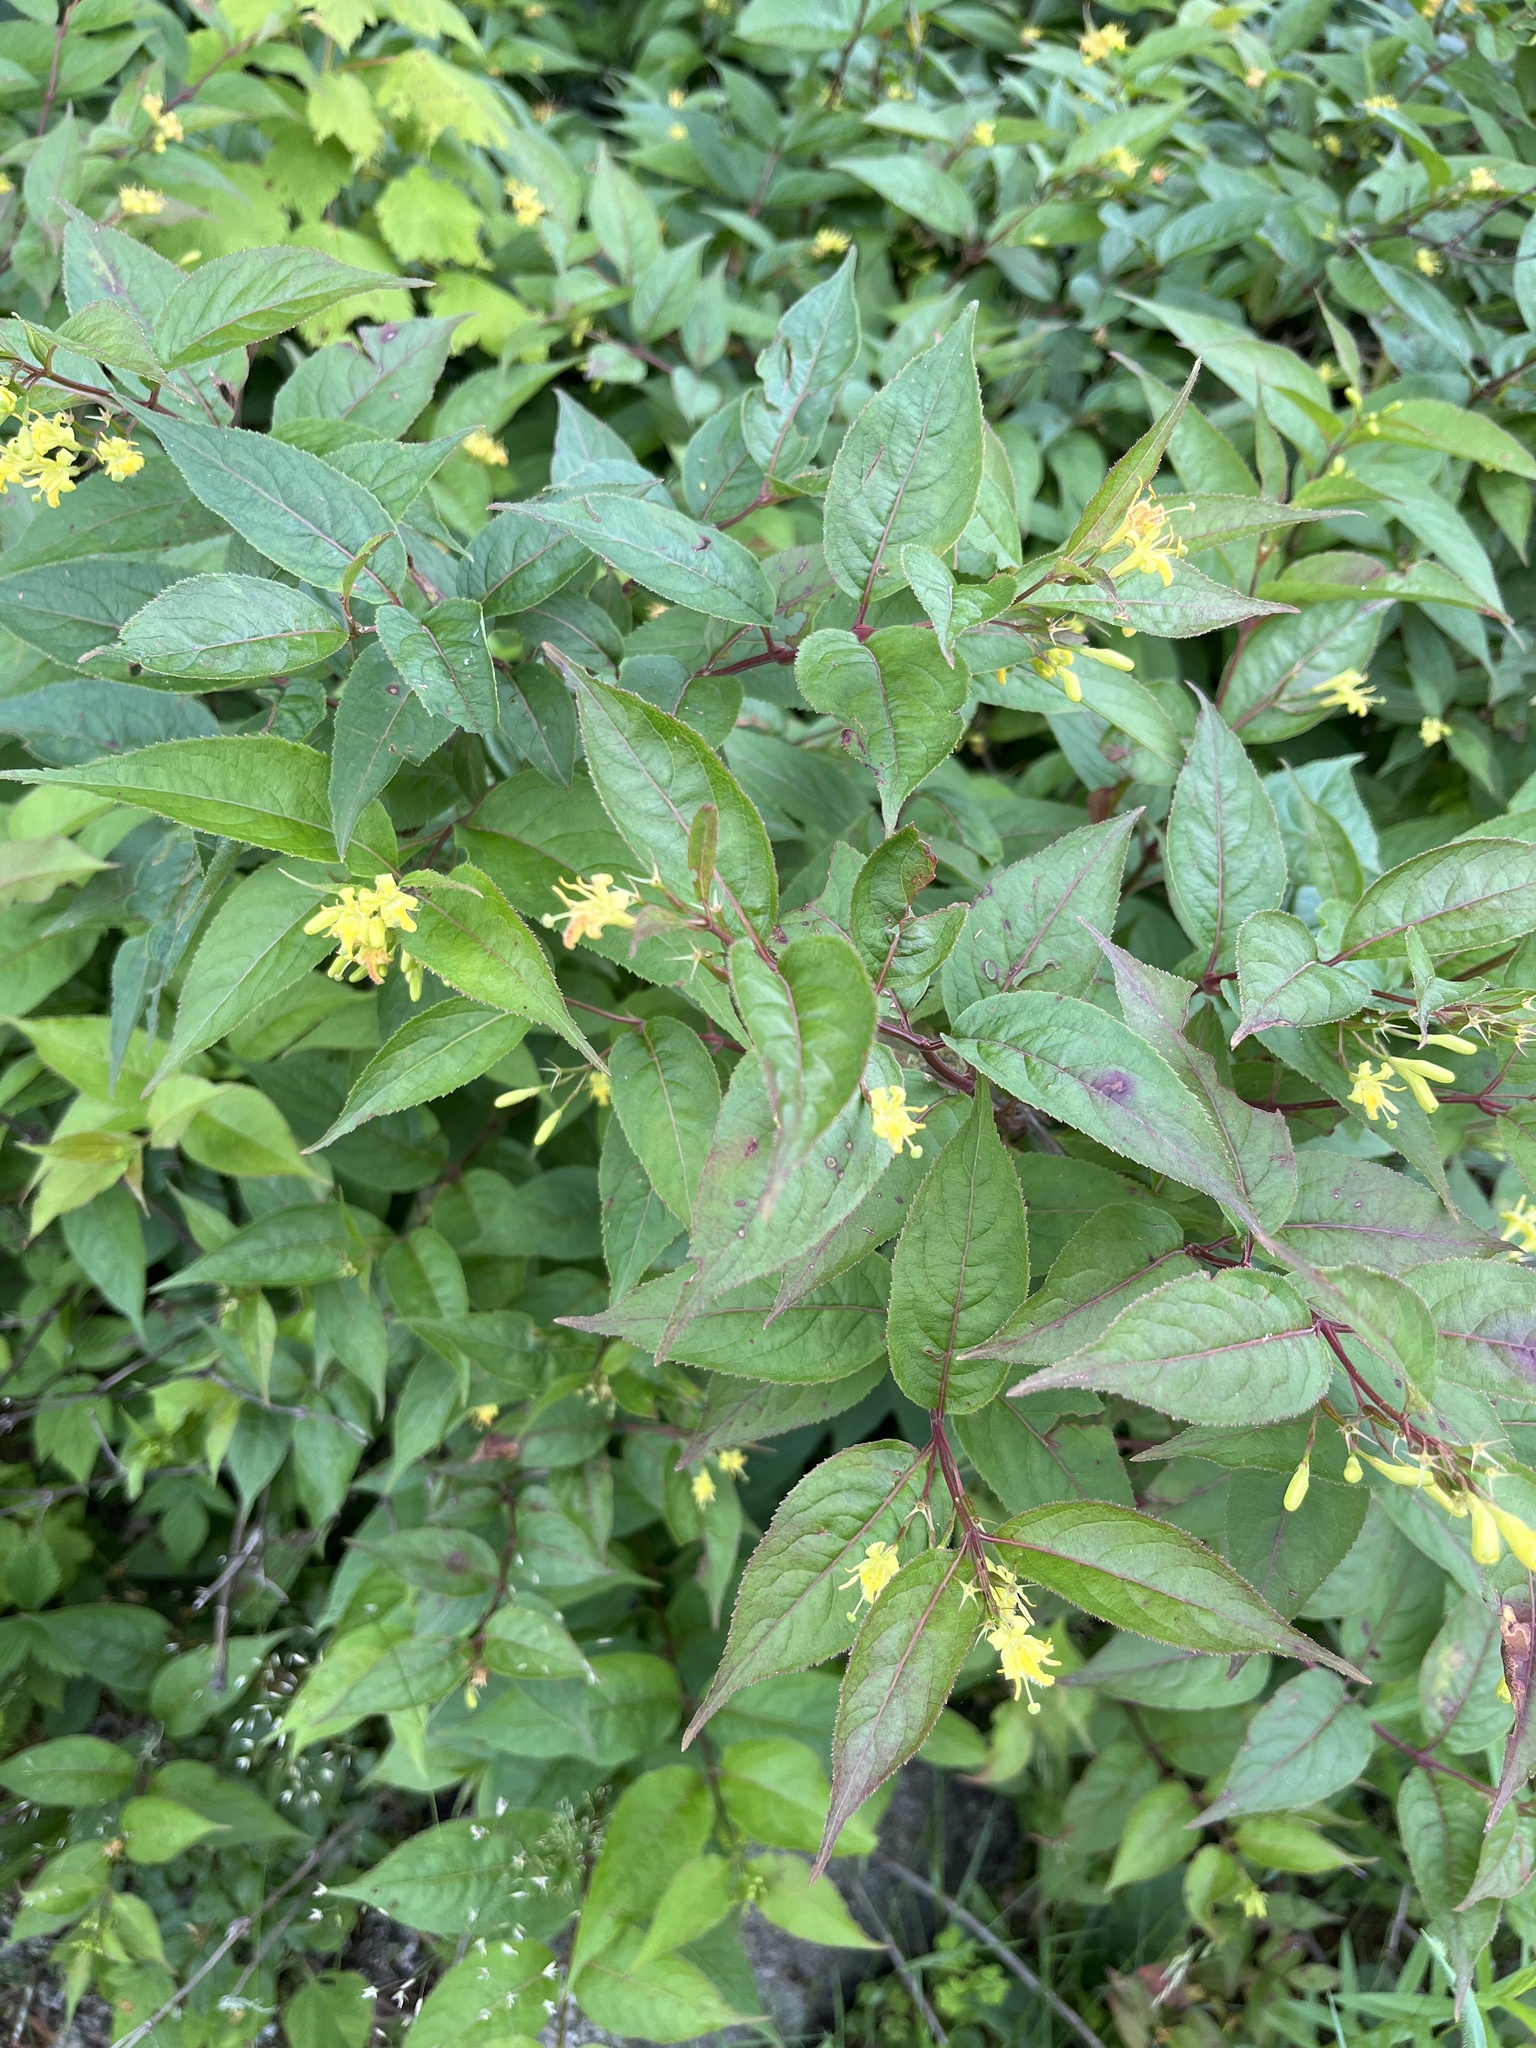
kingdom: Plantae
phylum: Tracheophyta
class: Magnoliopsida
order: Dipsacales
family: Caprifoliaceae
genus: Diervilla
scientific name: Diervilla lonicera
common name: Bush-honeysuckle
